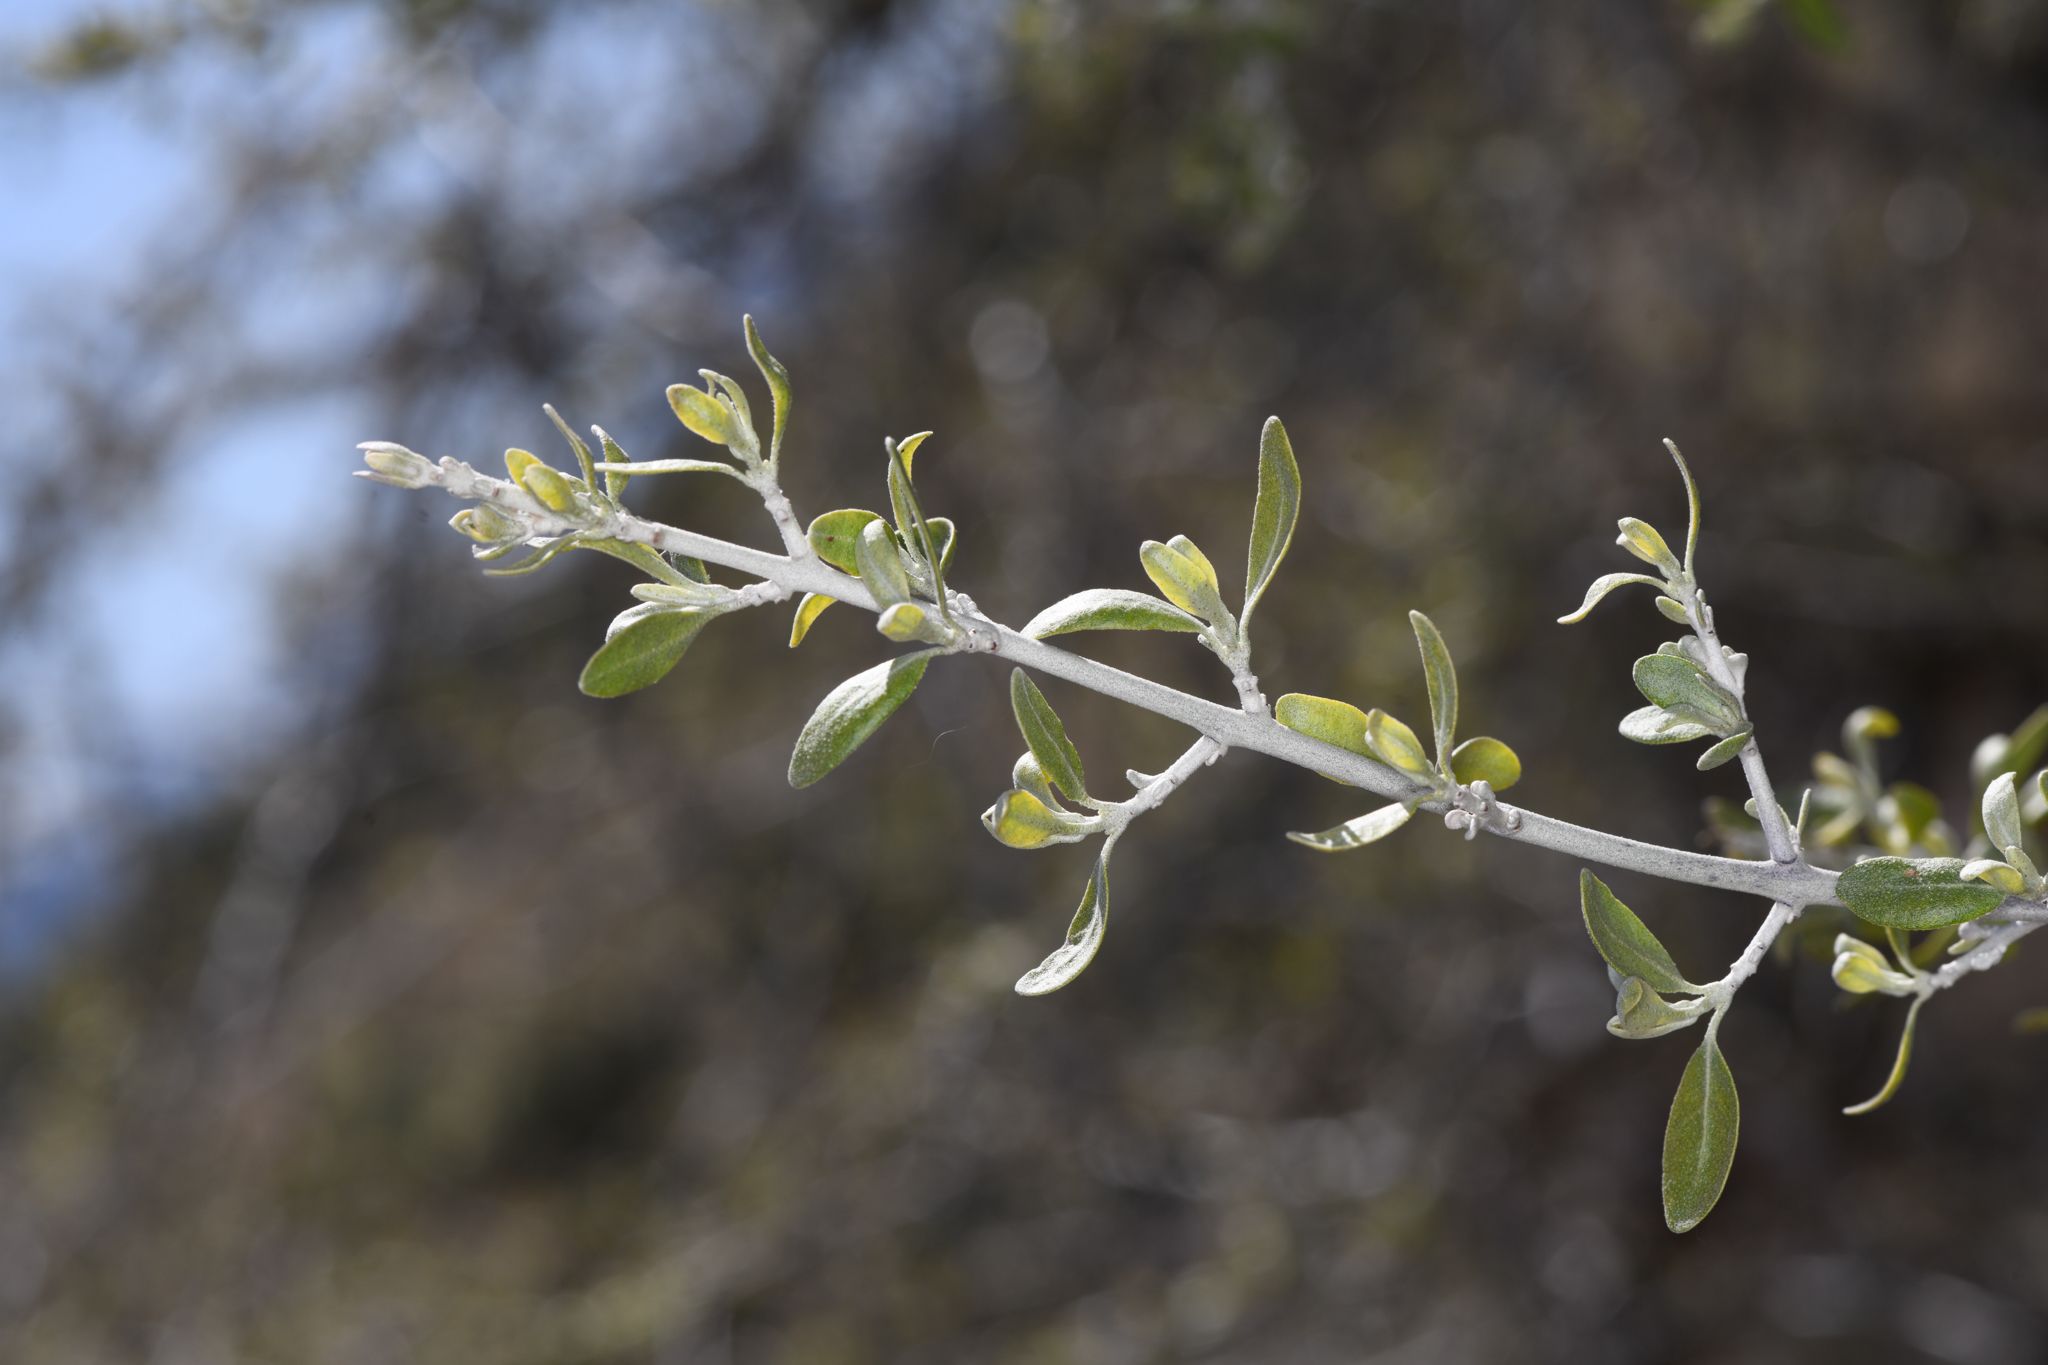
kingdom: Plantae
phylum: Tracheophyta
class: Magnoliopsida
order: Rosales
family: Elaeagnaceae
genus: Shepherdia
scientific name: Shepherdia argentea
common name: Silver buffaloberry
